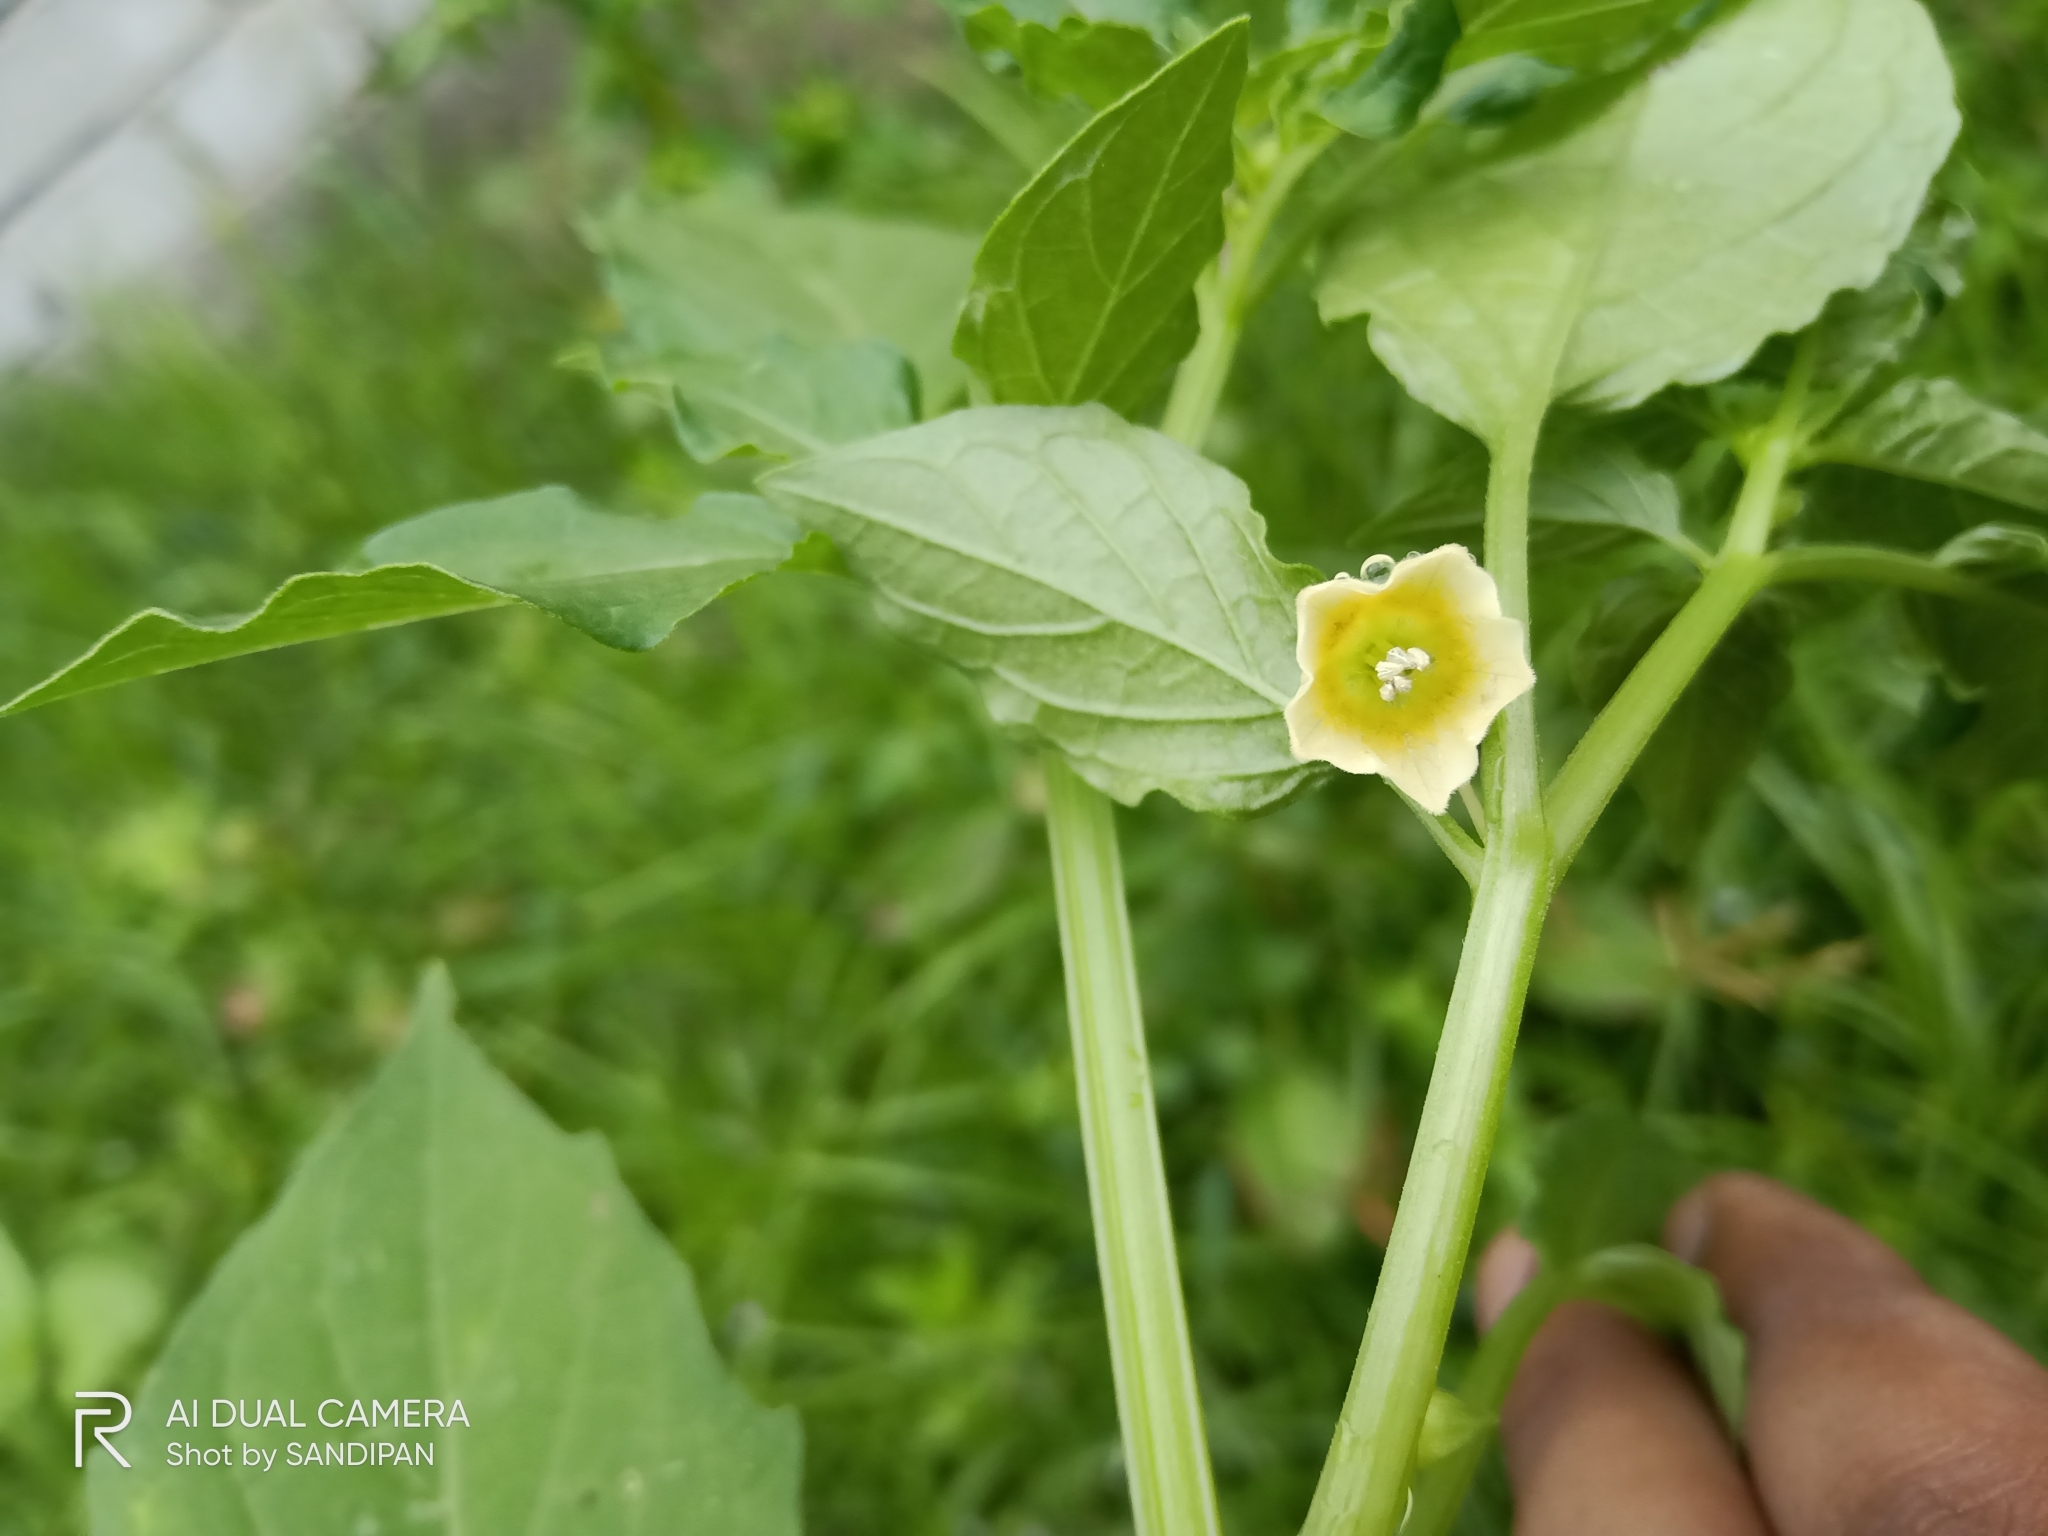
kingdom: Plantae
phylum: Tracheophyta
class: Magnoliopsida
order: Solanales
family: Solanaceae
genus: Physalis
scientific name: Physalis angulata
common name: Angular winter-cherry
